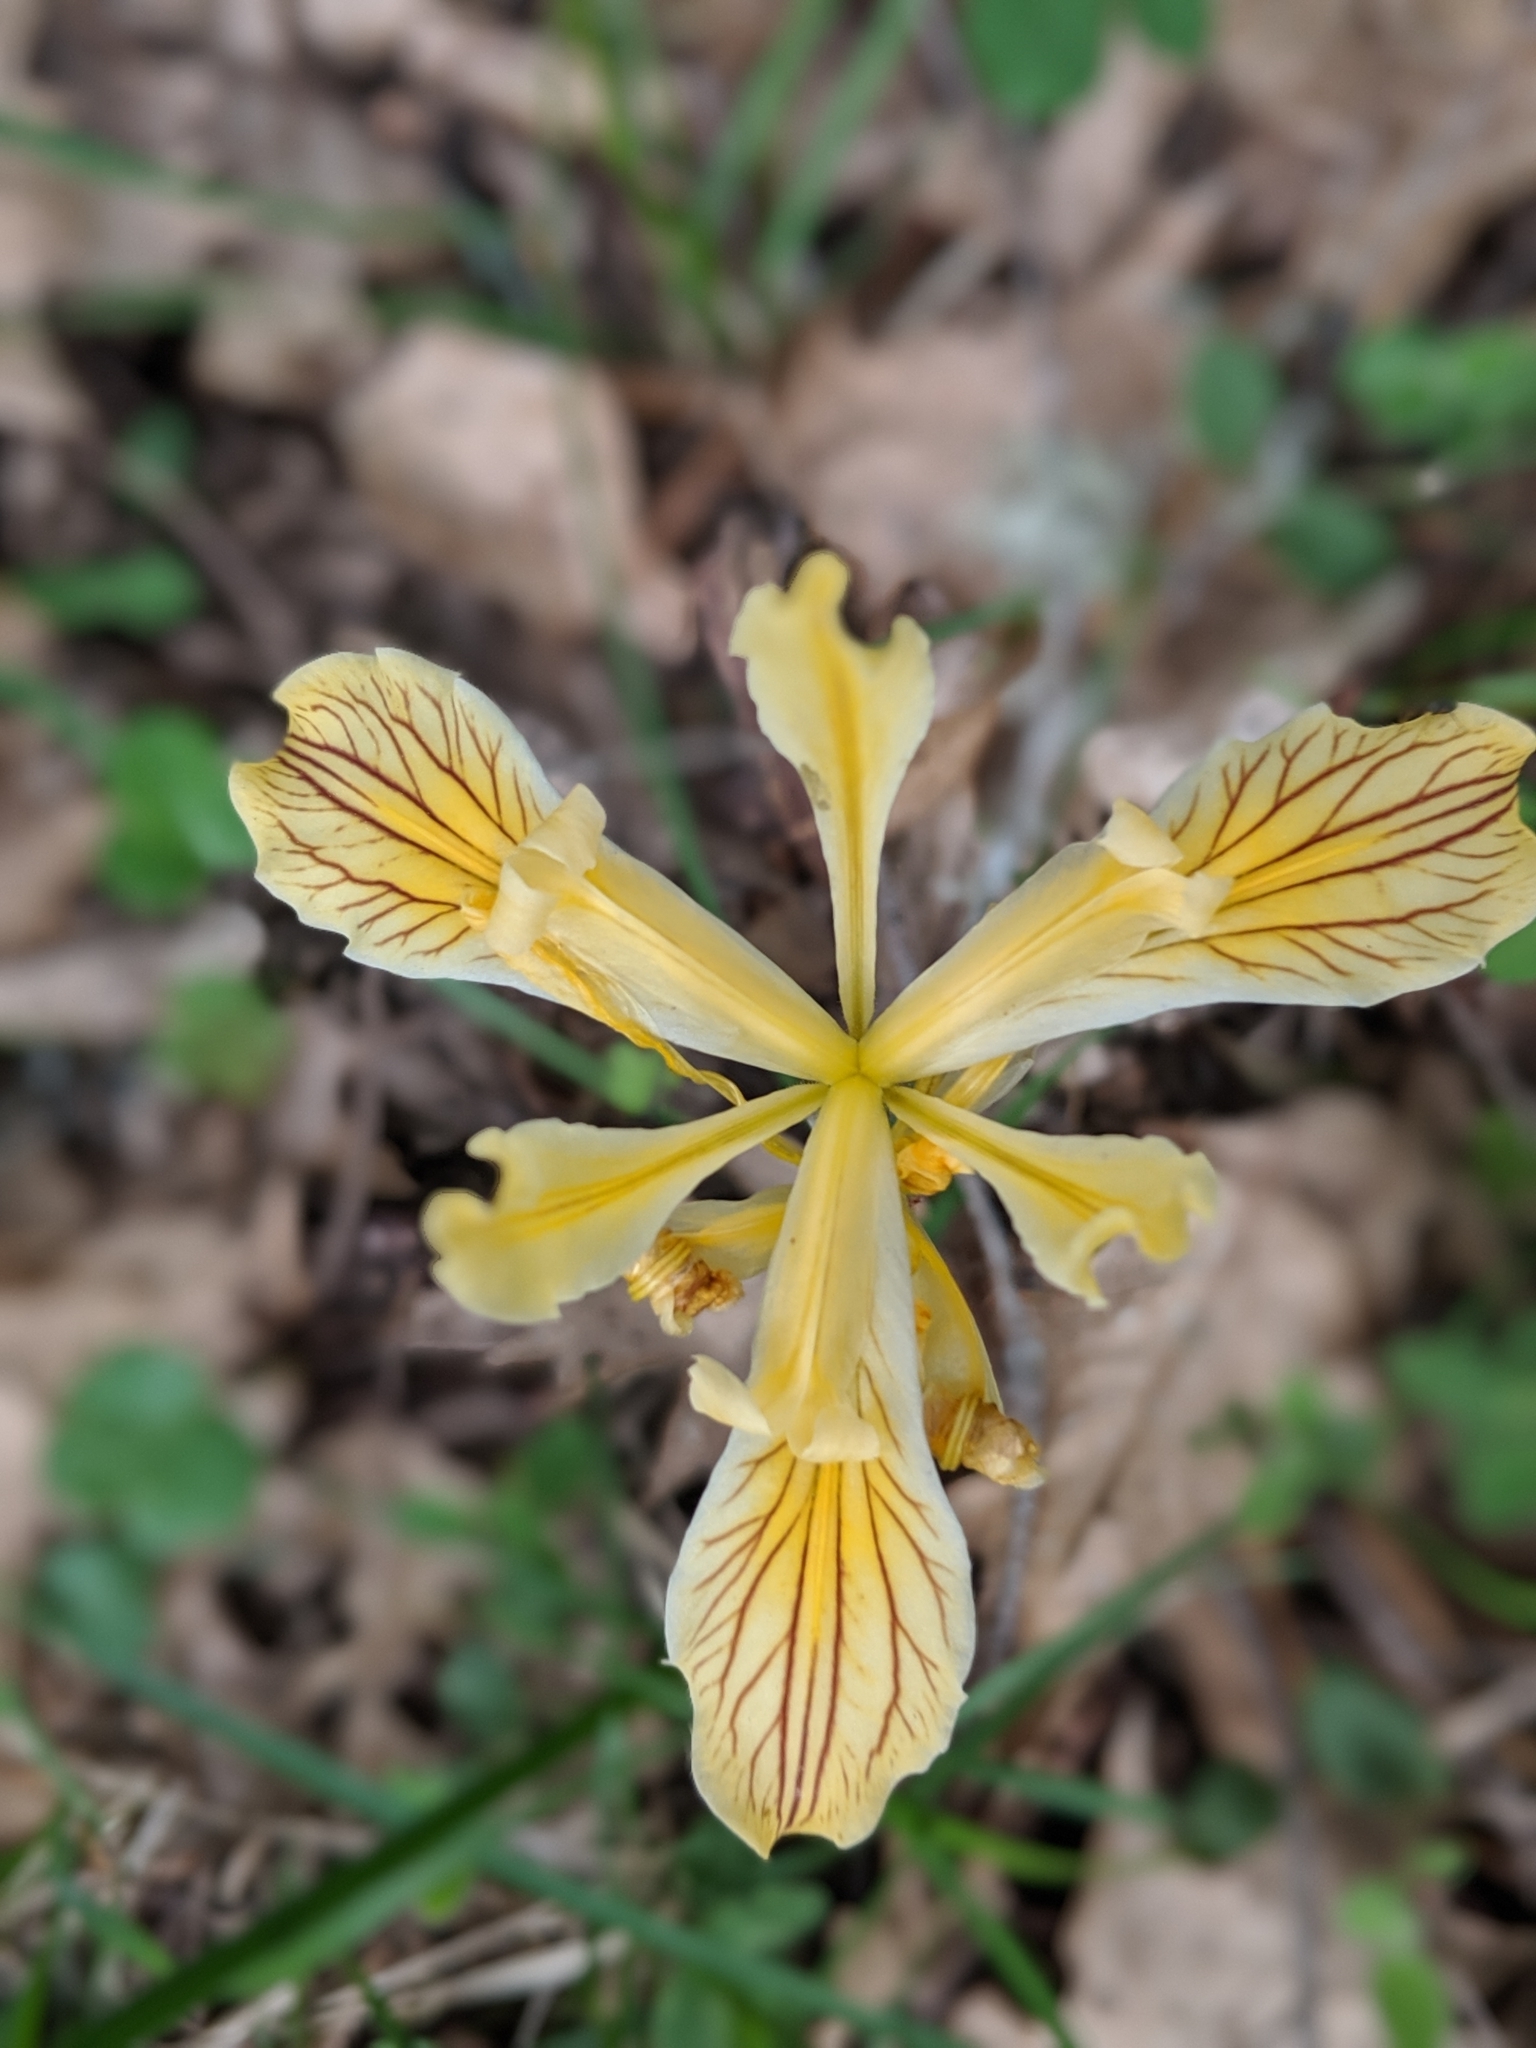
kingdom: Plantae
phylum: Tracheophyta
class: Liliopsida
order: Asparagales
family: Iridaceae
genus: Iris
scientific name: Iris innominata
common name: Del norte county iris
